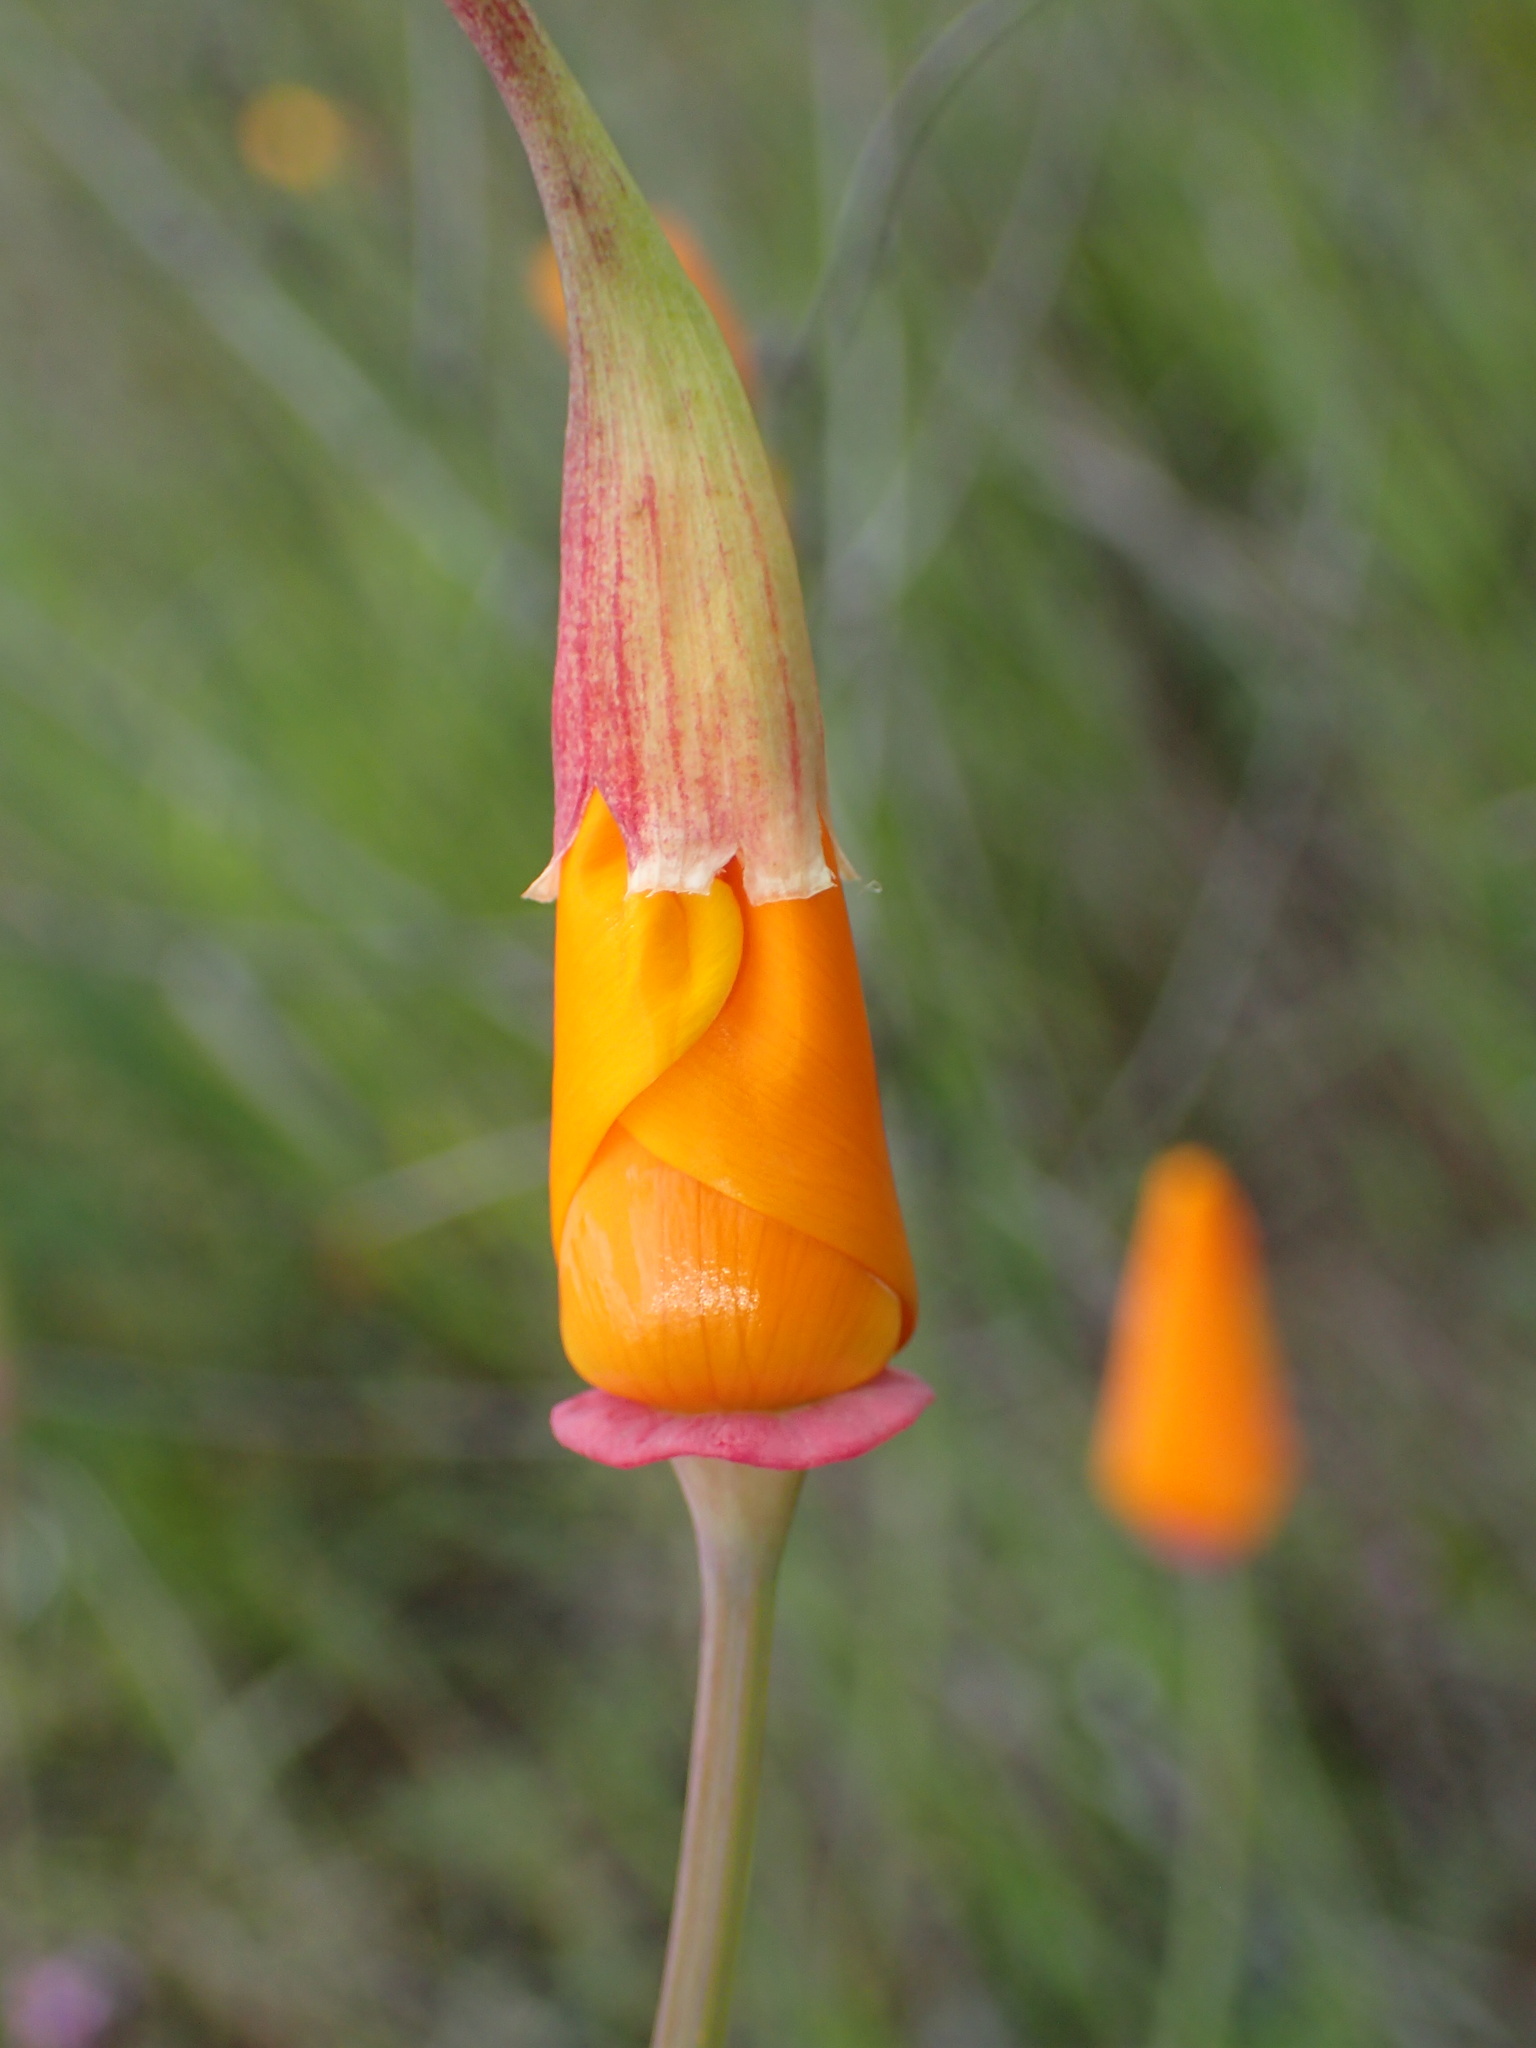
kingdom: Plantae
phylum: Tracheophyta
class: Magnoliopsida
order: Ranunculales
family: Papaveraceae
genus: Eschscholzia
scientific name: Eschscholzia californica
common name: California poppy
